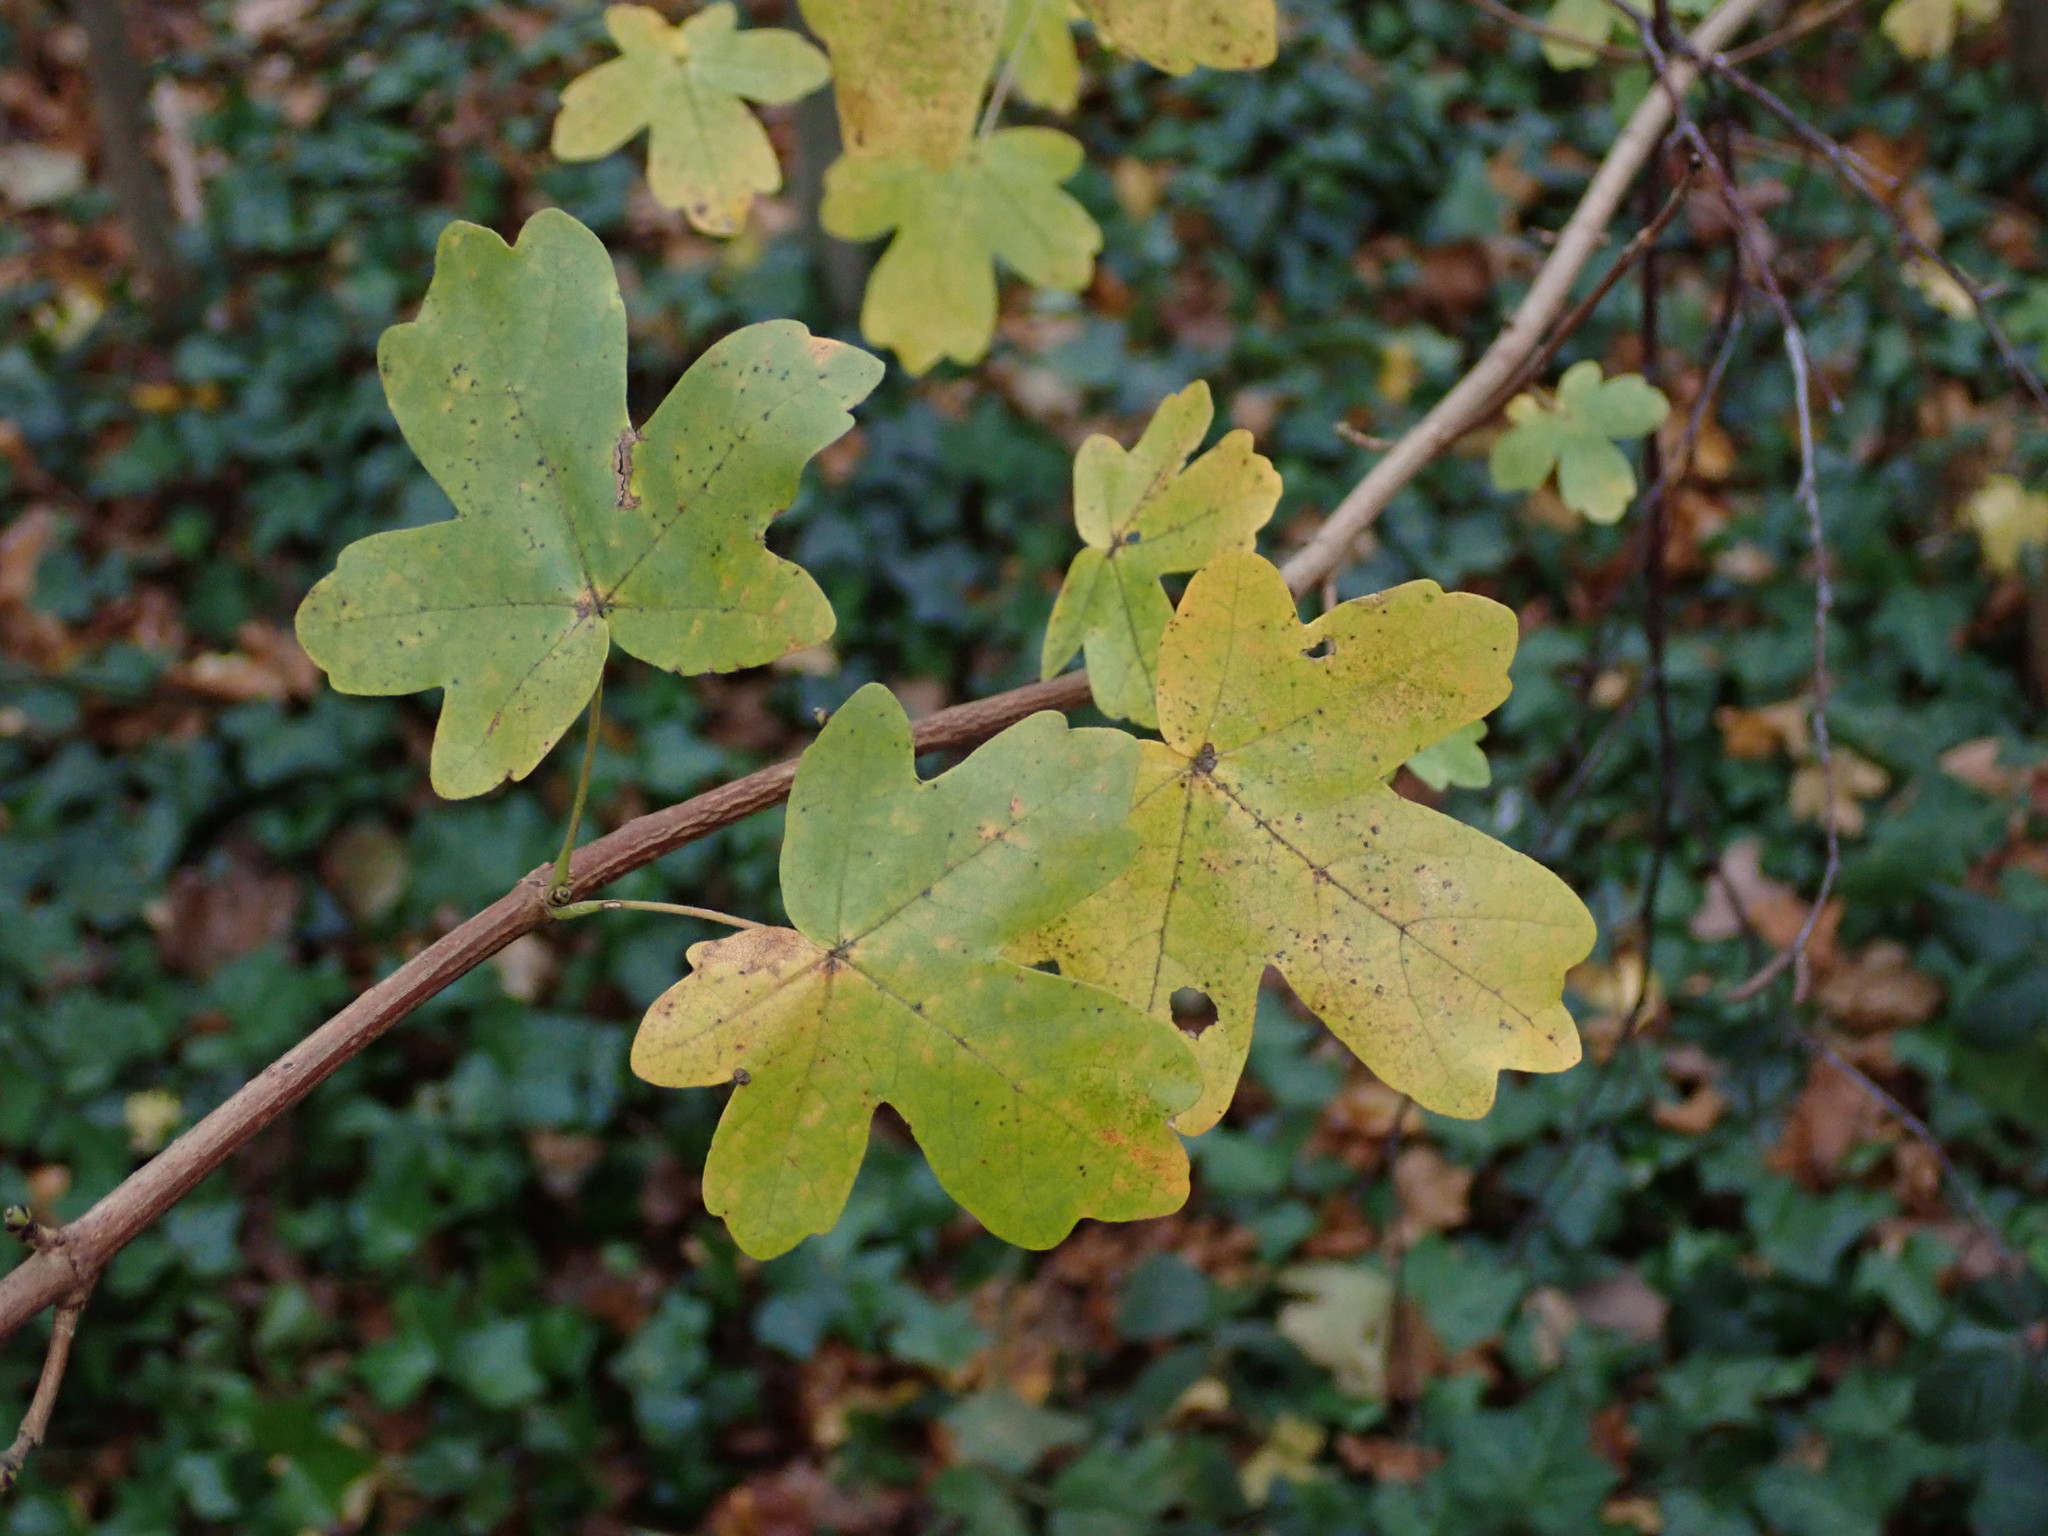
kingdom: Plantae
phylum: Tracheophyta
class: Magnoliopsida
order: Sapindales
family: Sapindaceae
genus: Acer
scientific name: Acer campestre
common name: Field maple
